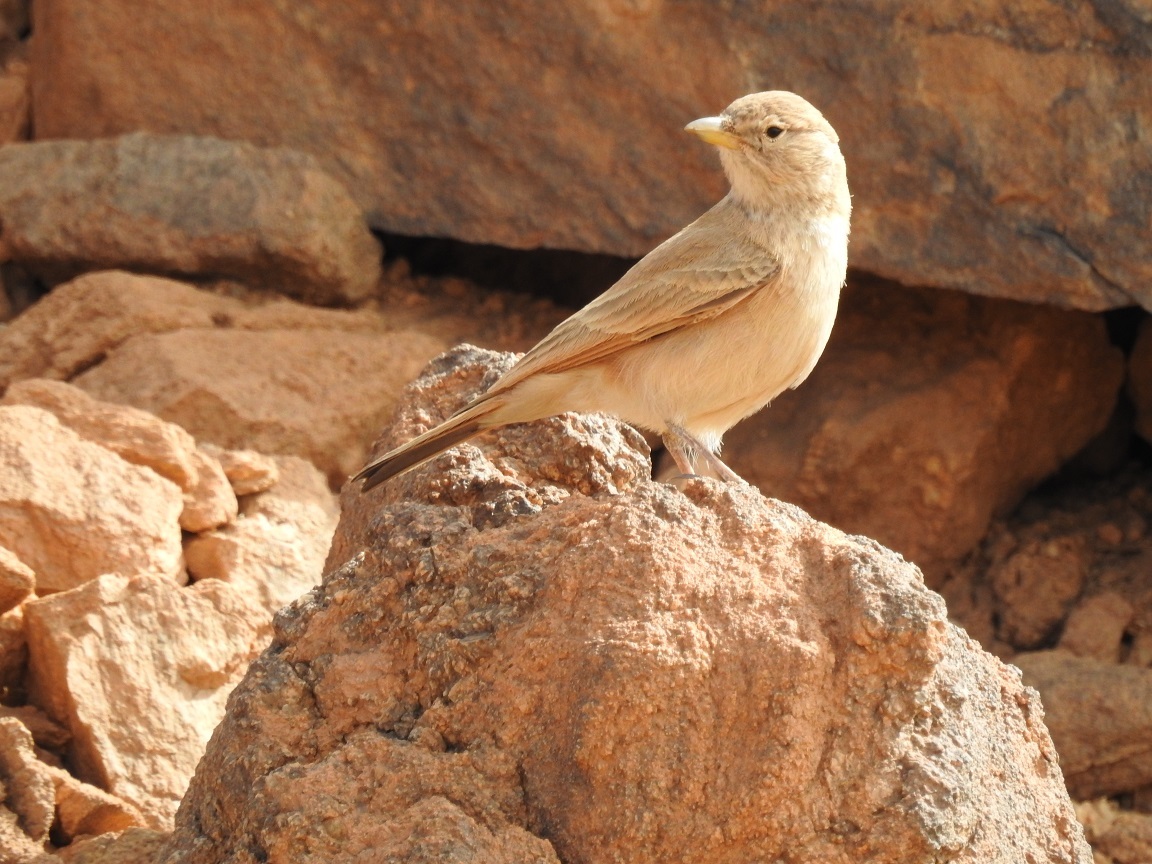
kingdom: Animalia
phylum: Chordata
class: Aves
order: Passeriformes
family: Alaudidae
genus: Ammomanes
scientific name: Ammomanes deserti
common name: Desert lark
